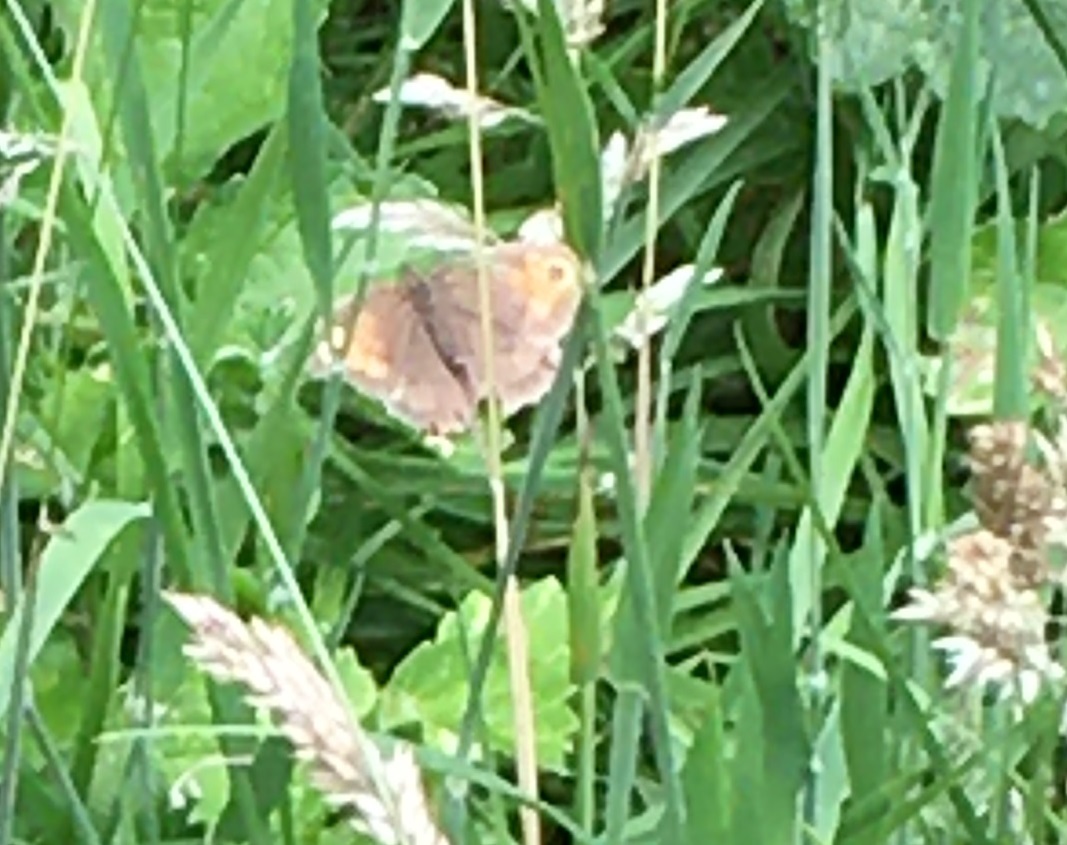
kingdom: Animalia
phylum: Arthropoda
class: Insecta
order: Lepidoptera
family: Nymphalidae
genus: Maniola
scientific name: Maniola jurtina
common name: Meadow brown
